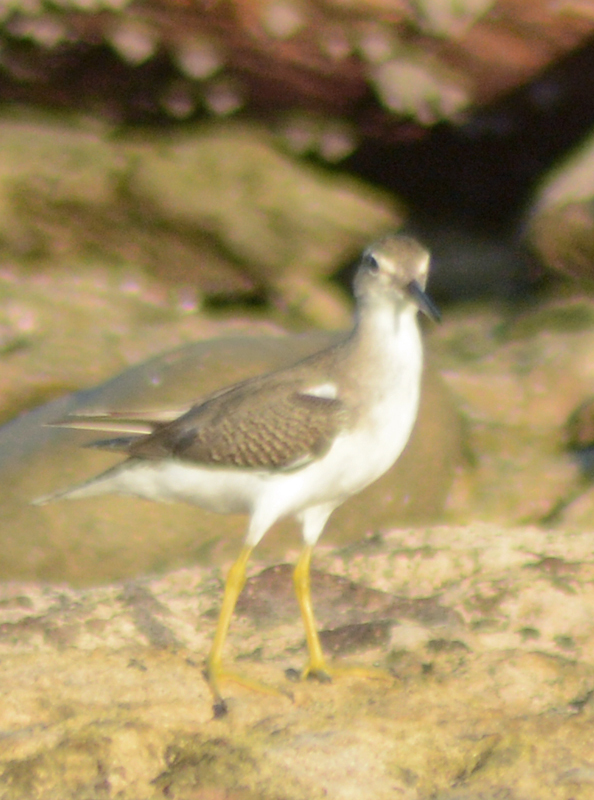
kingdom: Animalia
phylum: Chordata
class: Aves
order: Charadriiformes
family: Scolopacidae
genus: Actitis
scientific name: Actitis macularius
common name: Spotted sandpiper
